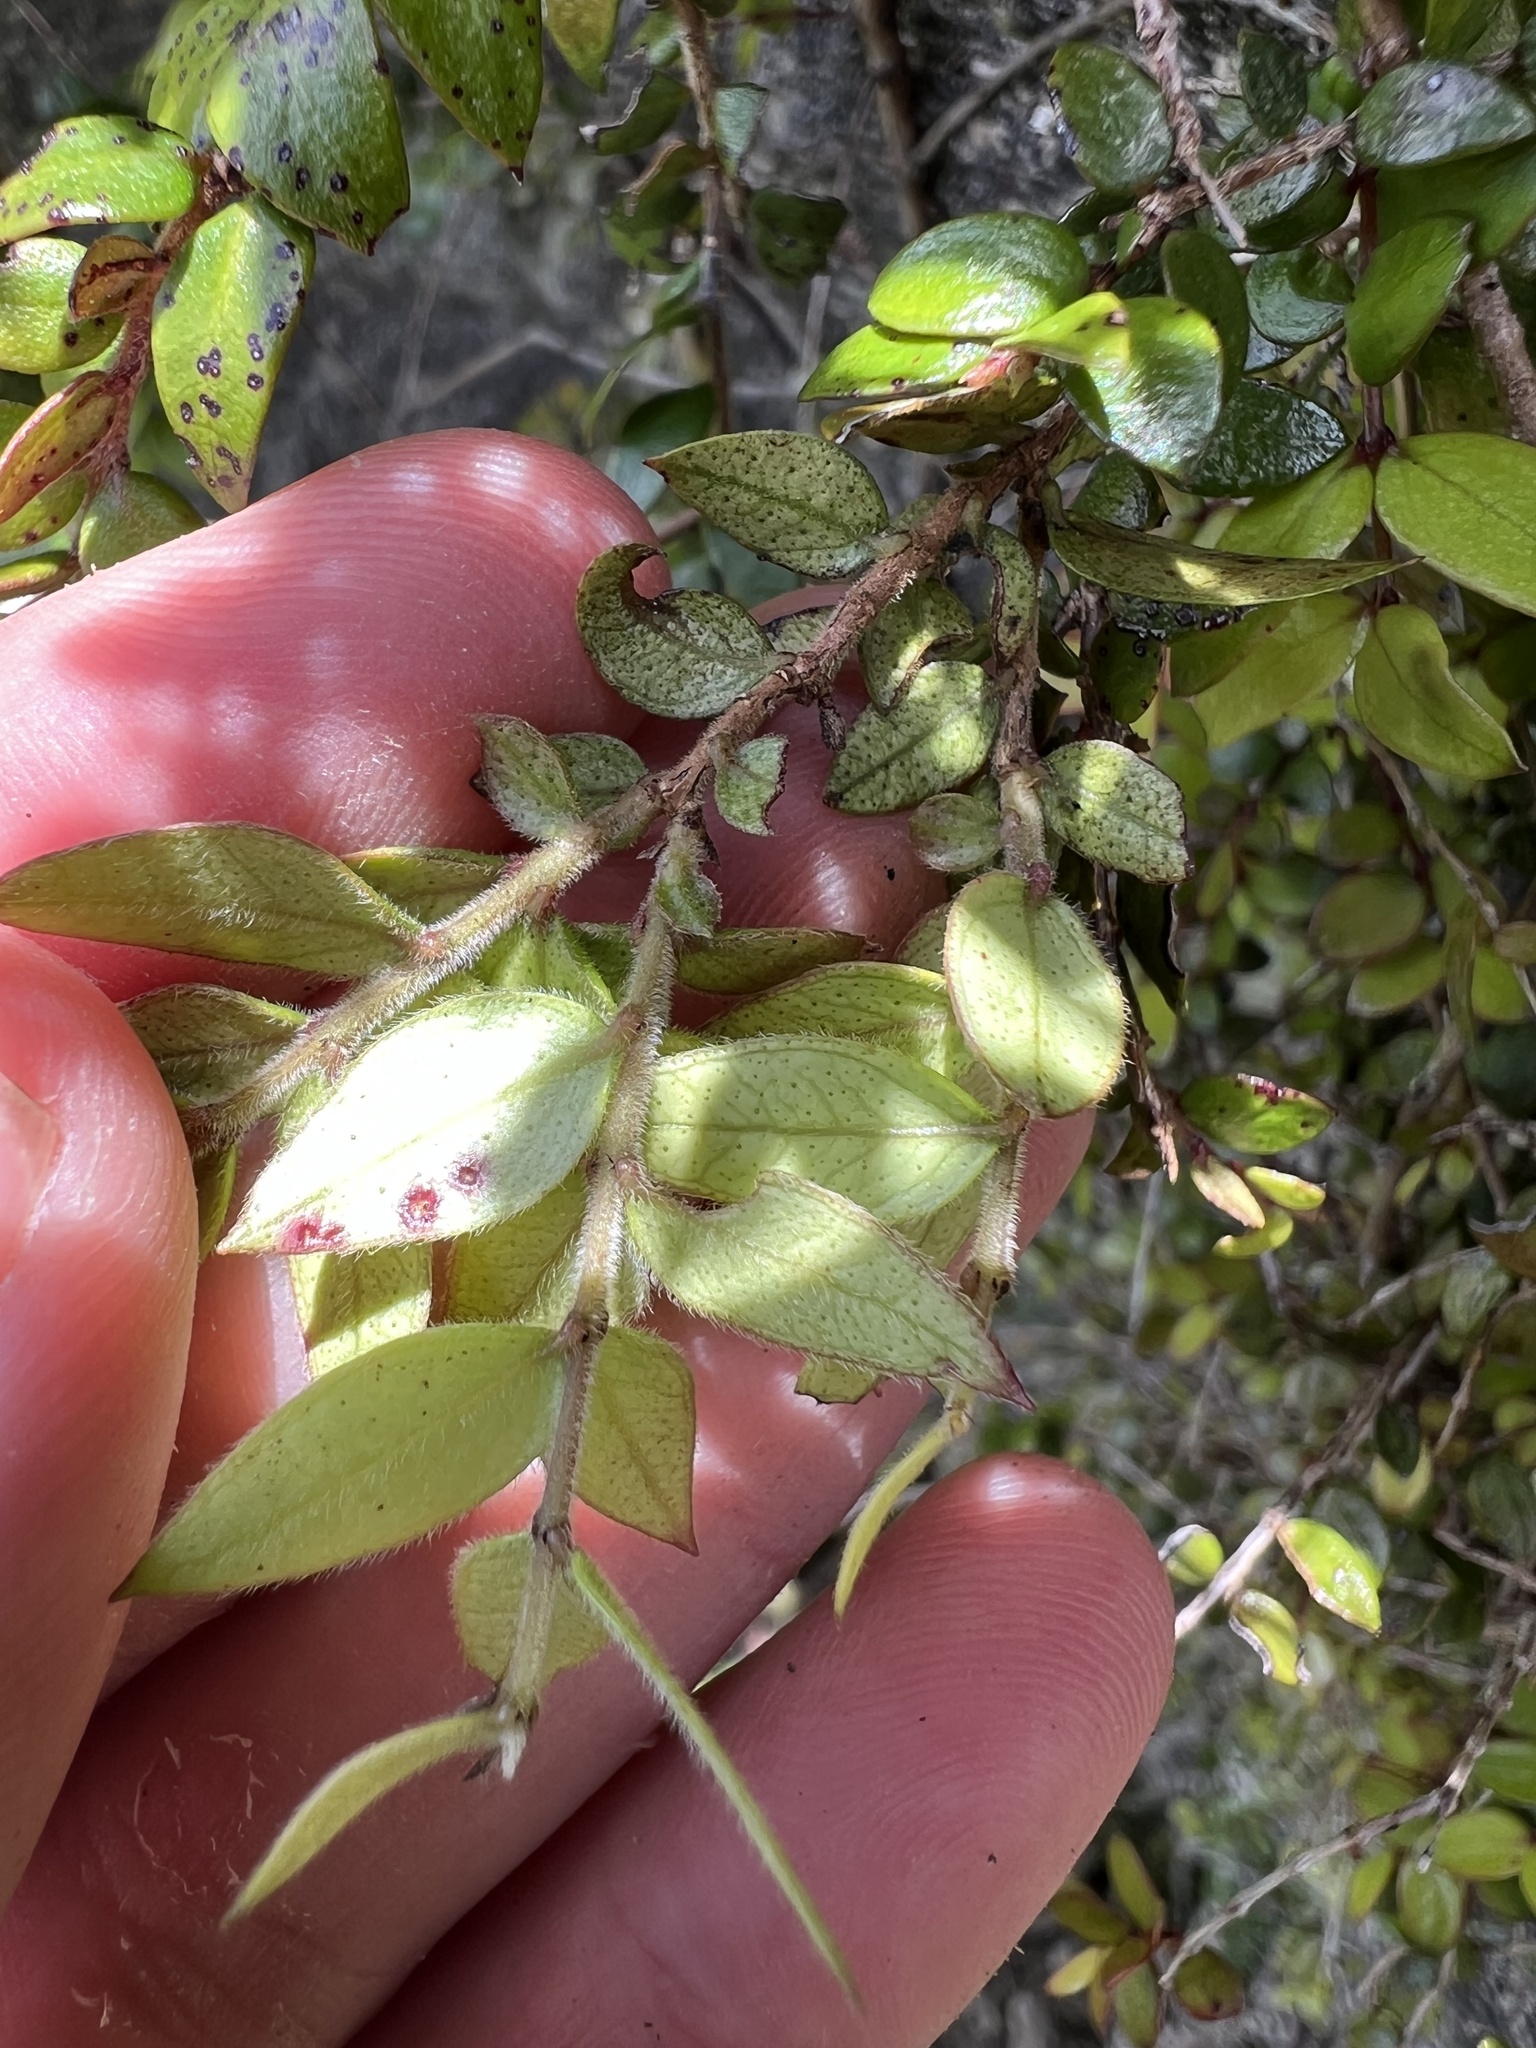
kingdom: Plantae
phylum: Tracheophyta
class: Magnoliopsida
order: Myrtales
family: Myrtaceae
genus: Metrosideros
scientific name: Metrosideros colensoi
